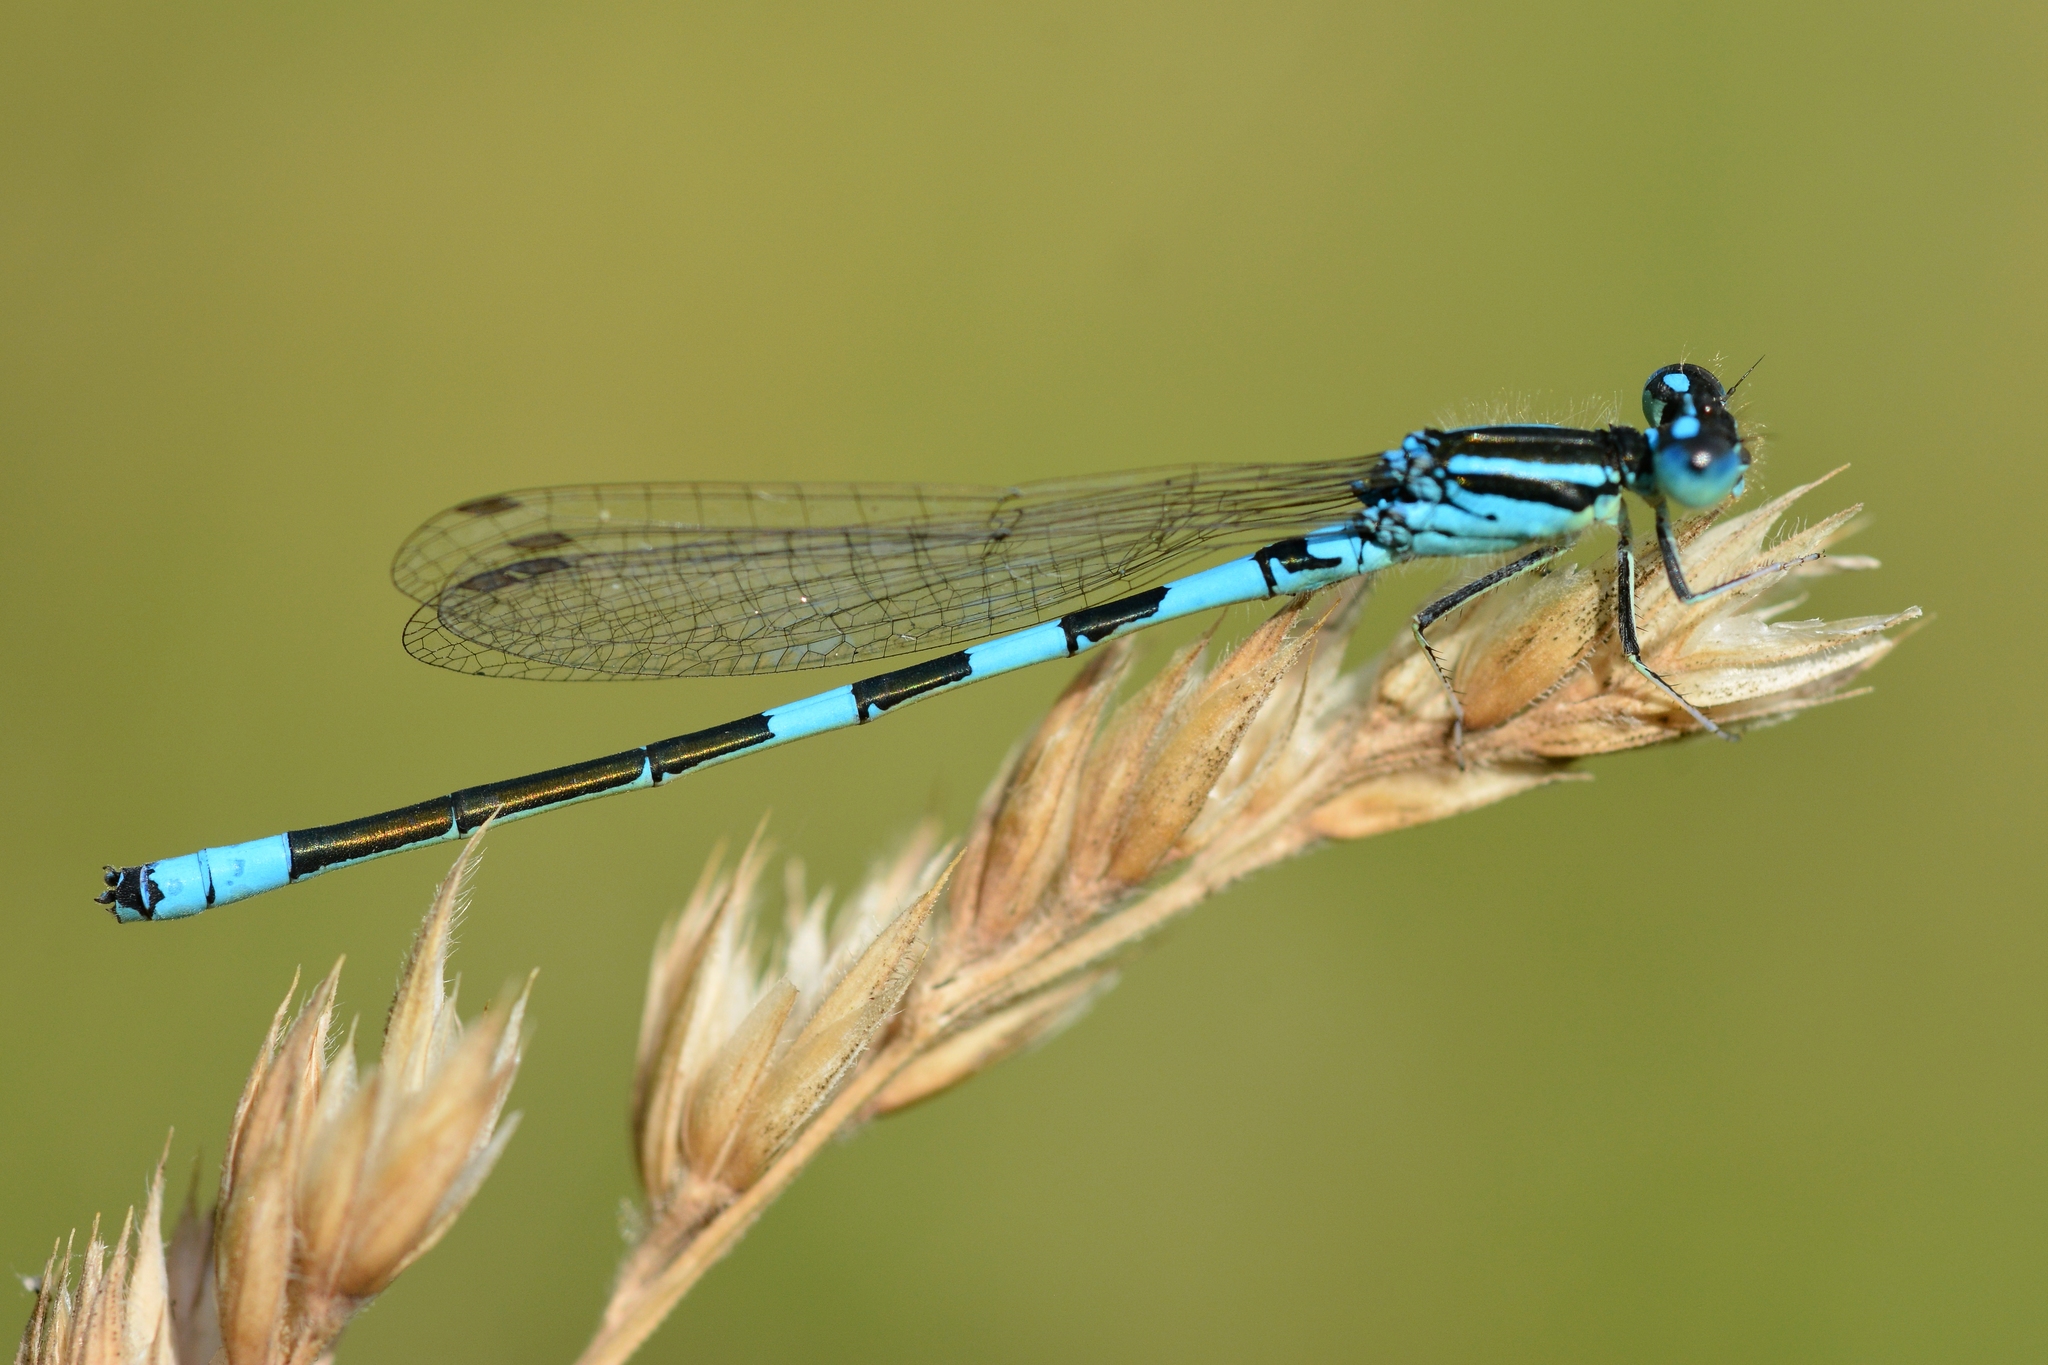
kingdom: Animalia
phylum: Arthropoda
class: Insecta
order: Odonata
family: Coenagrionidae
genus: Coenagrion
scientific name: Coenagrion scitulum
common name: Dainty bluet
